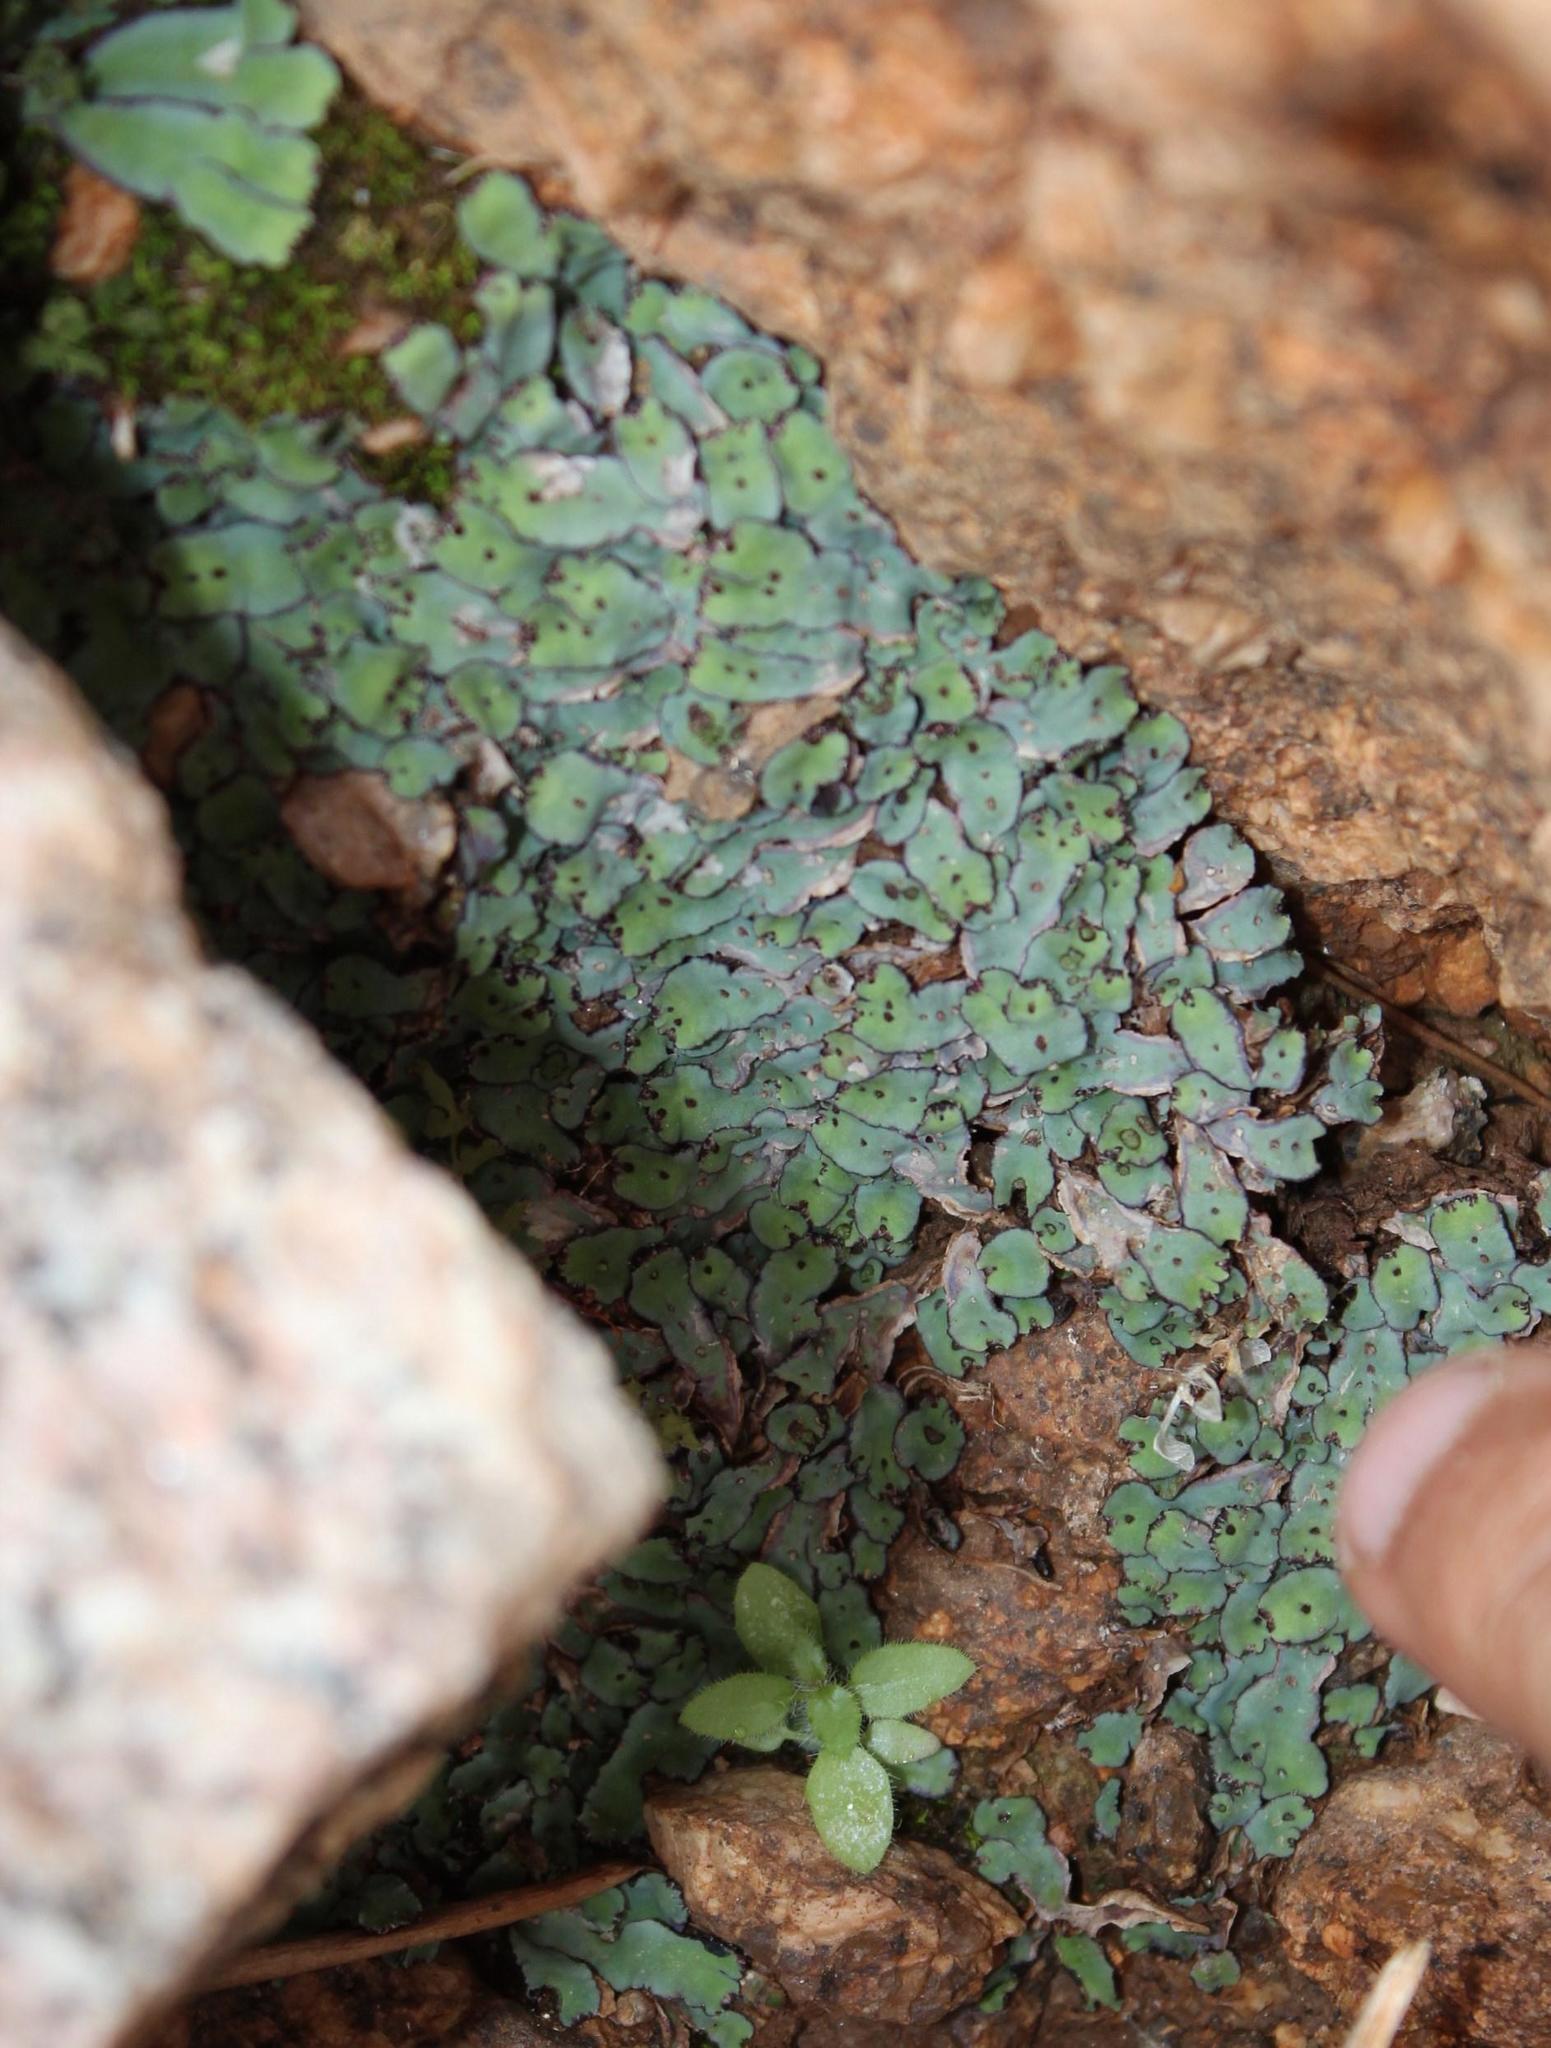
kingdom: Plantae
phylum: Marchantiophyta
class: Marchantiopsida
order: Marchantiales
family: Aytoniaceae
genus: Plagiochasma
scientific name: Plagiochasma rupestre
